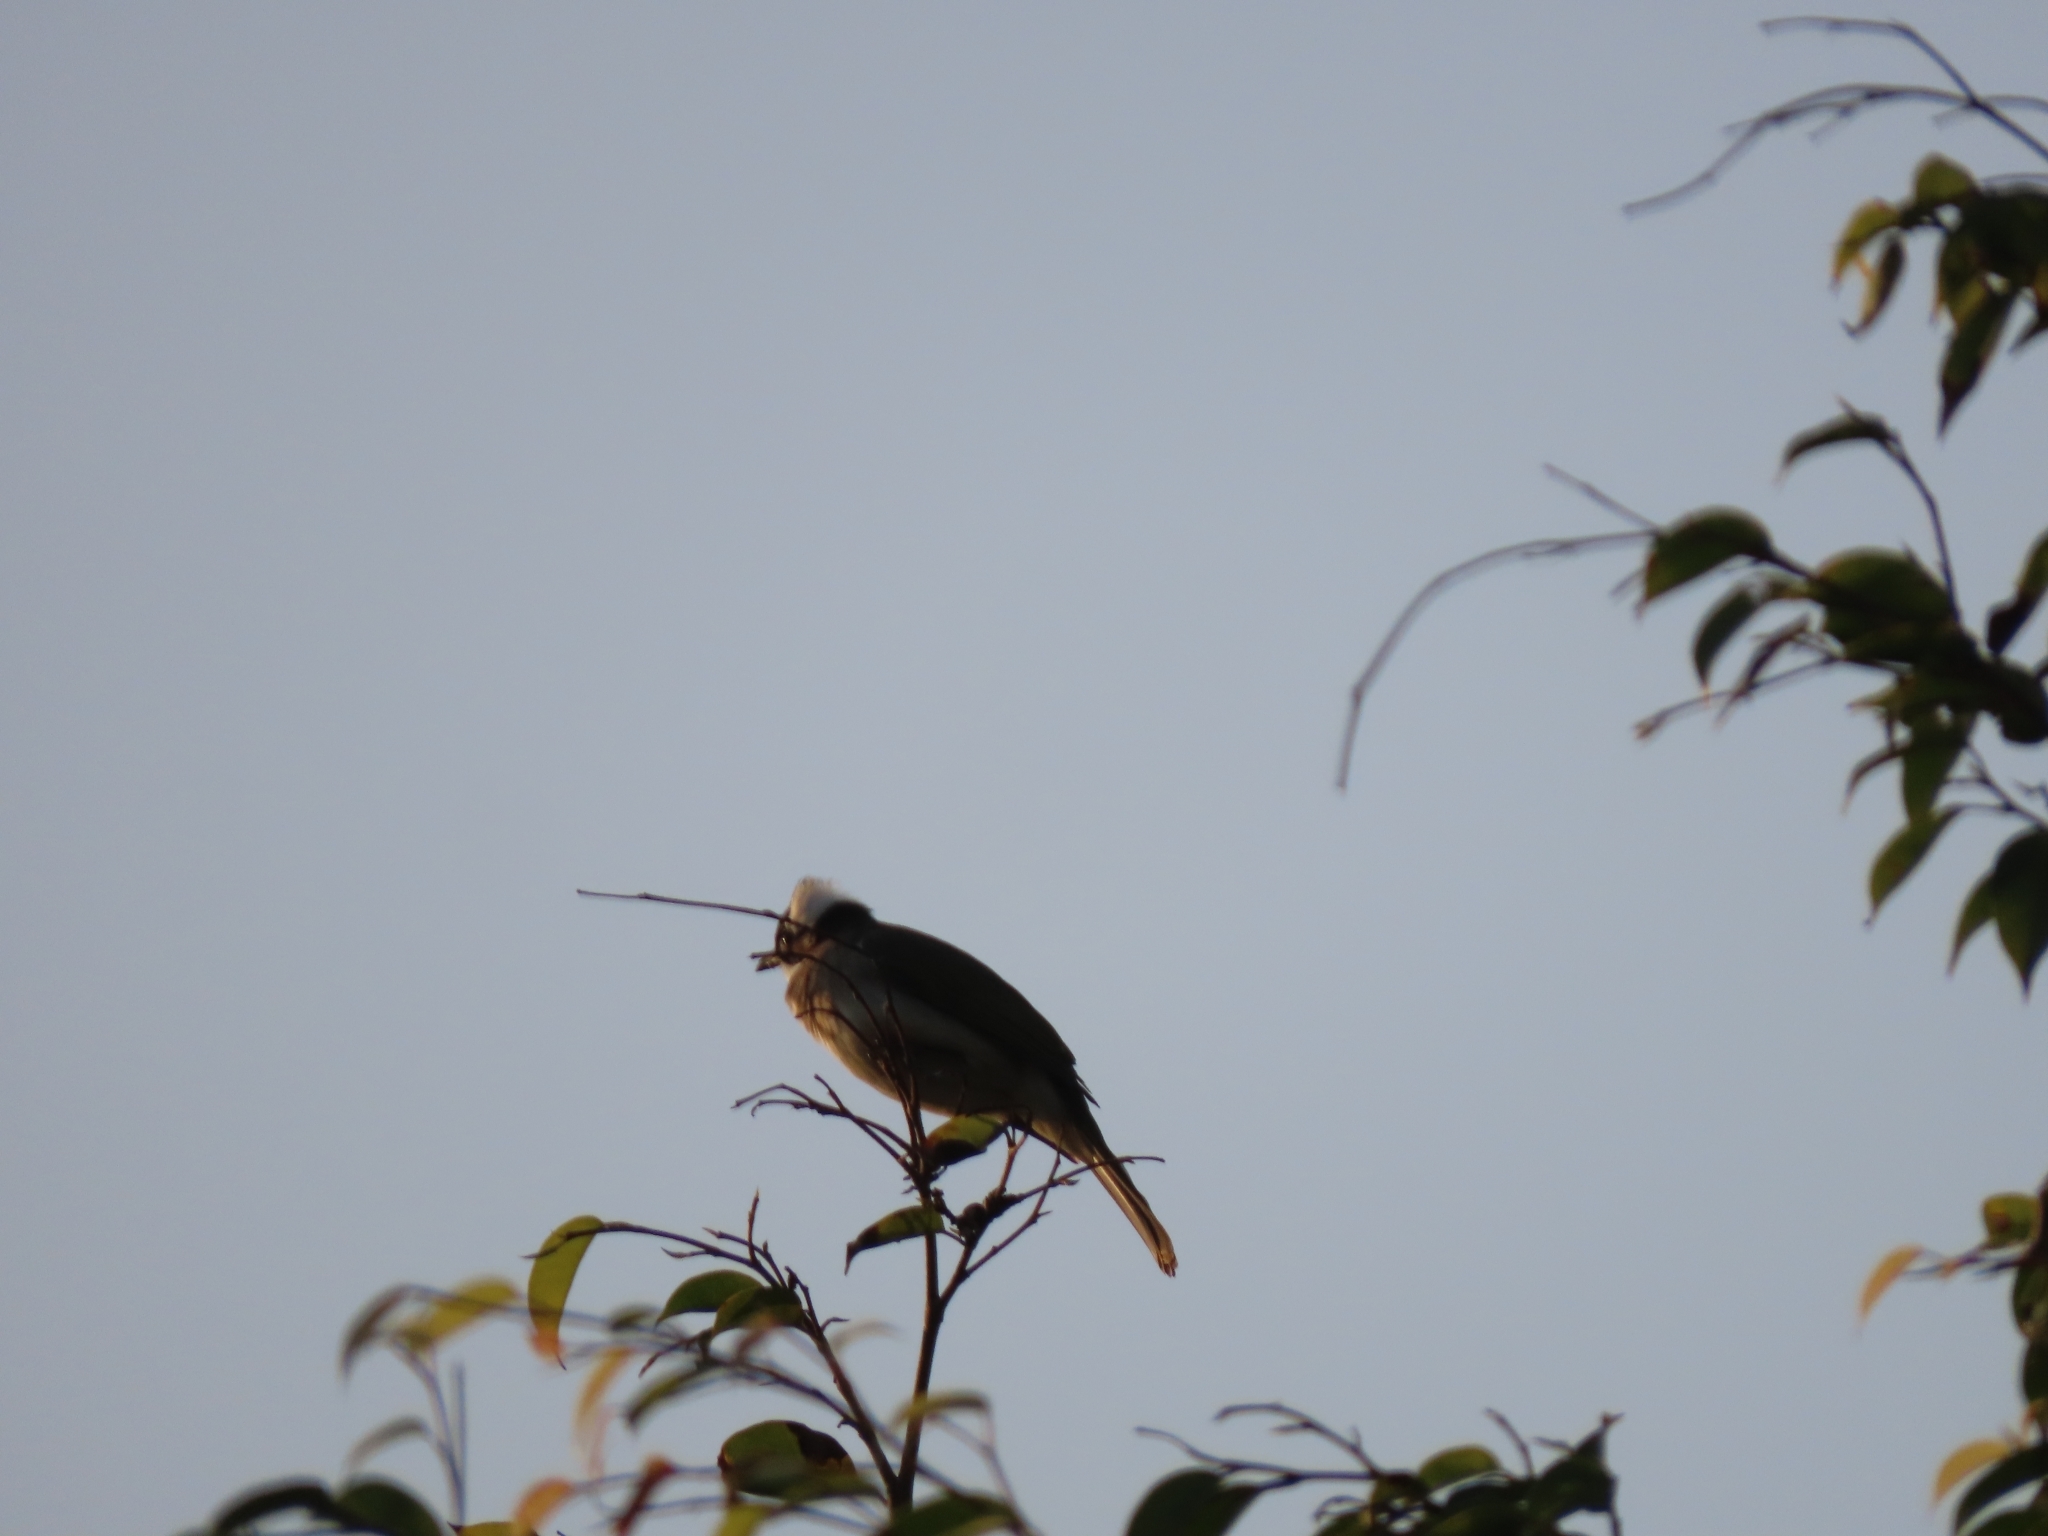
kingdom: Animalia
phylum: Chordata
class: Aves
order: Passeriformes
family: Pycnonotidae
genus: Pycnonotus
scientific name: Pycnonotus sinensis
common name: Light-vented bulbul
